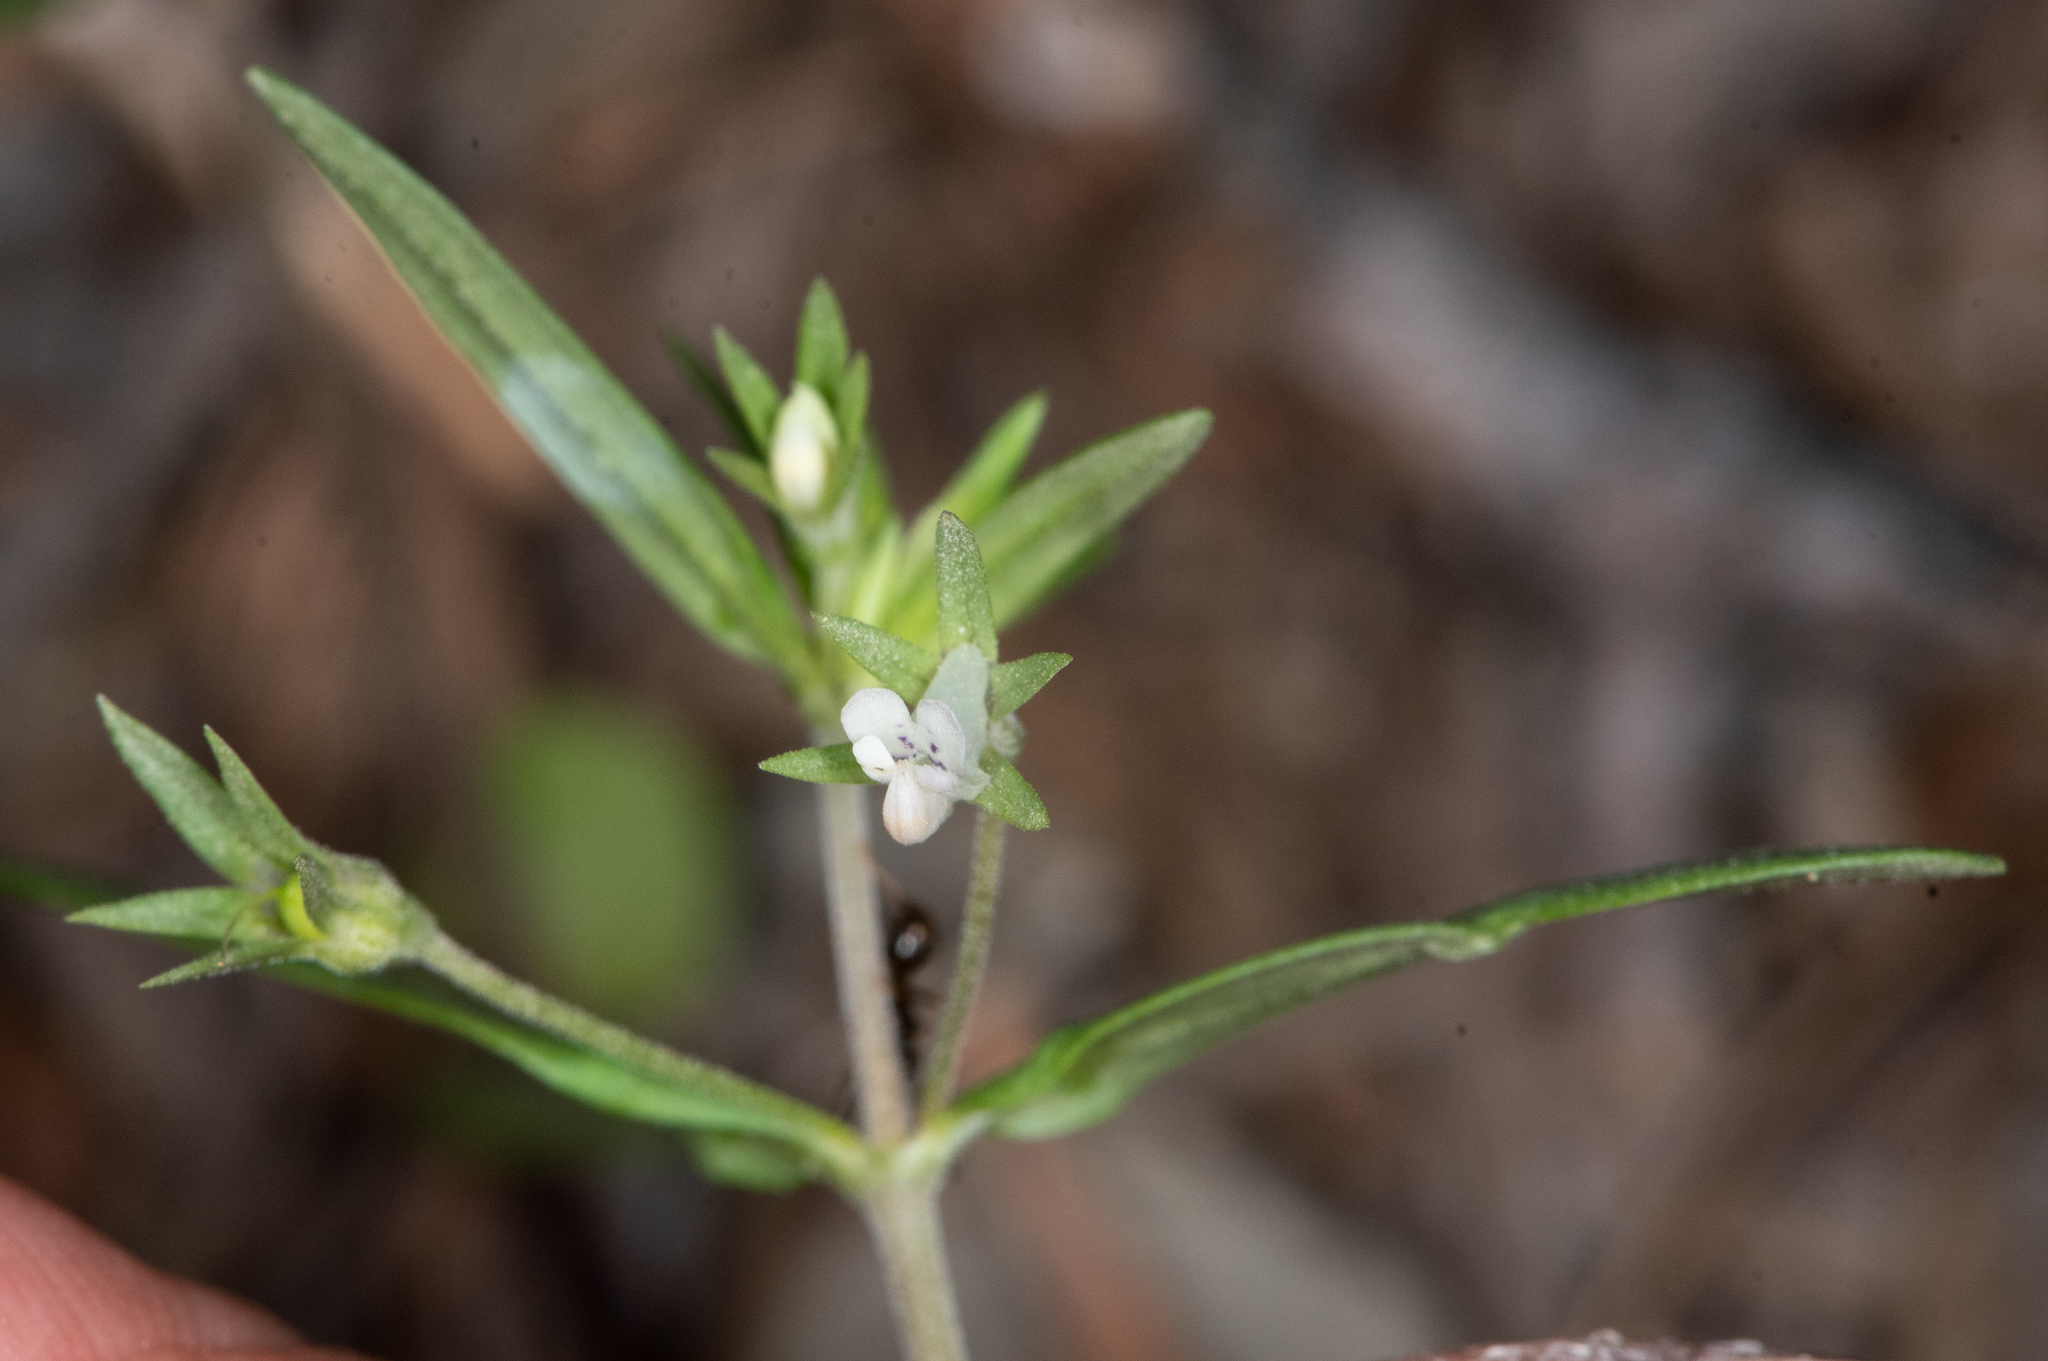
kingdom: Plantae
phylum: Tracheophyta
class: Magnoliopsida
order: Lamiales
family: Plantaginaceae
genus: Collinsia
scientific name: Collinsia parviflora
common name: Blue-lips
